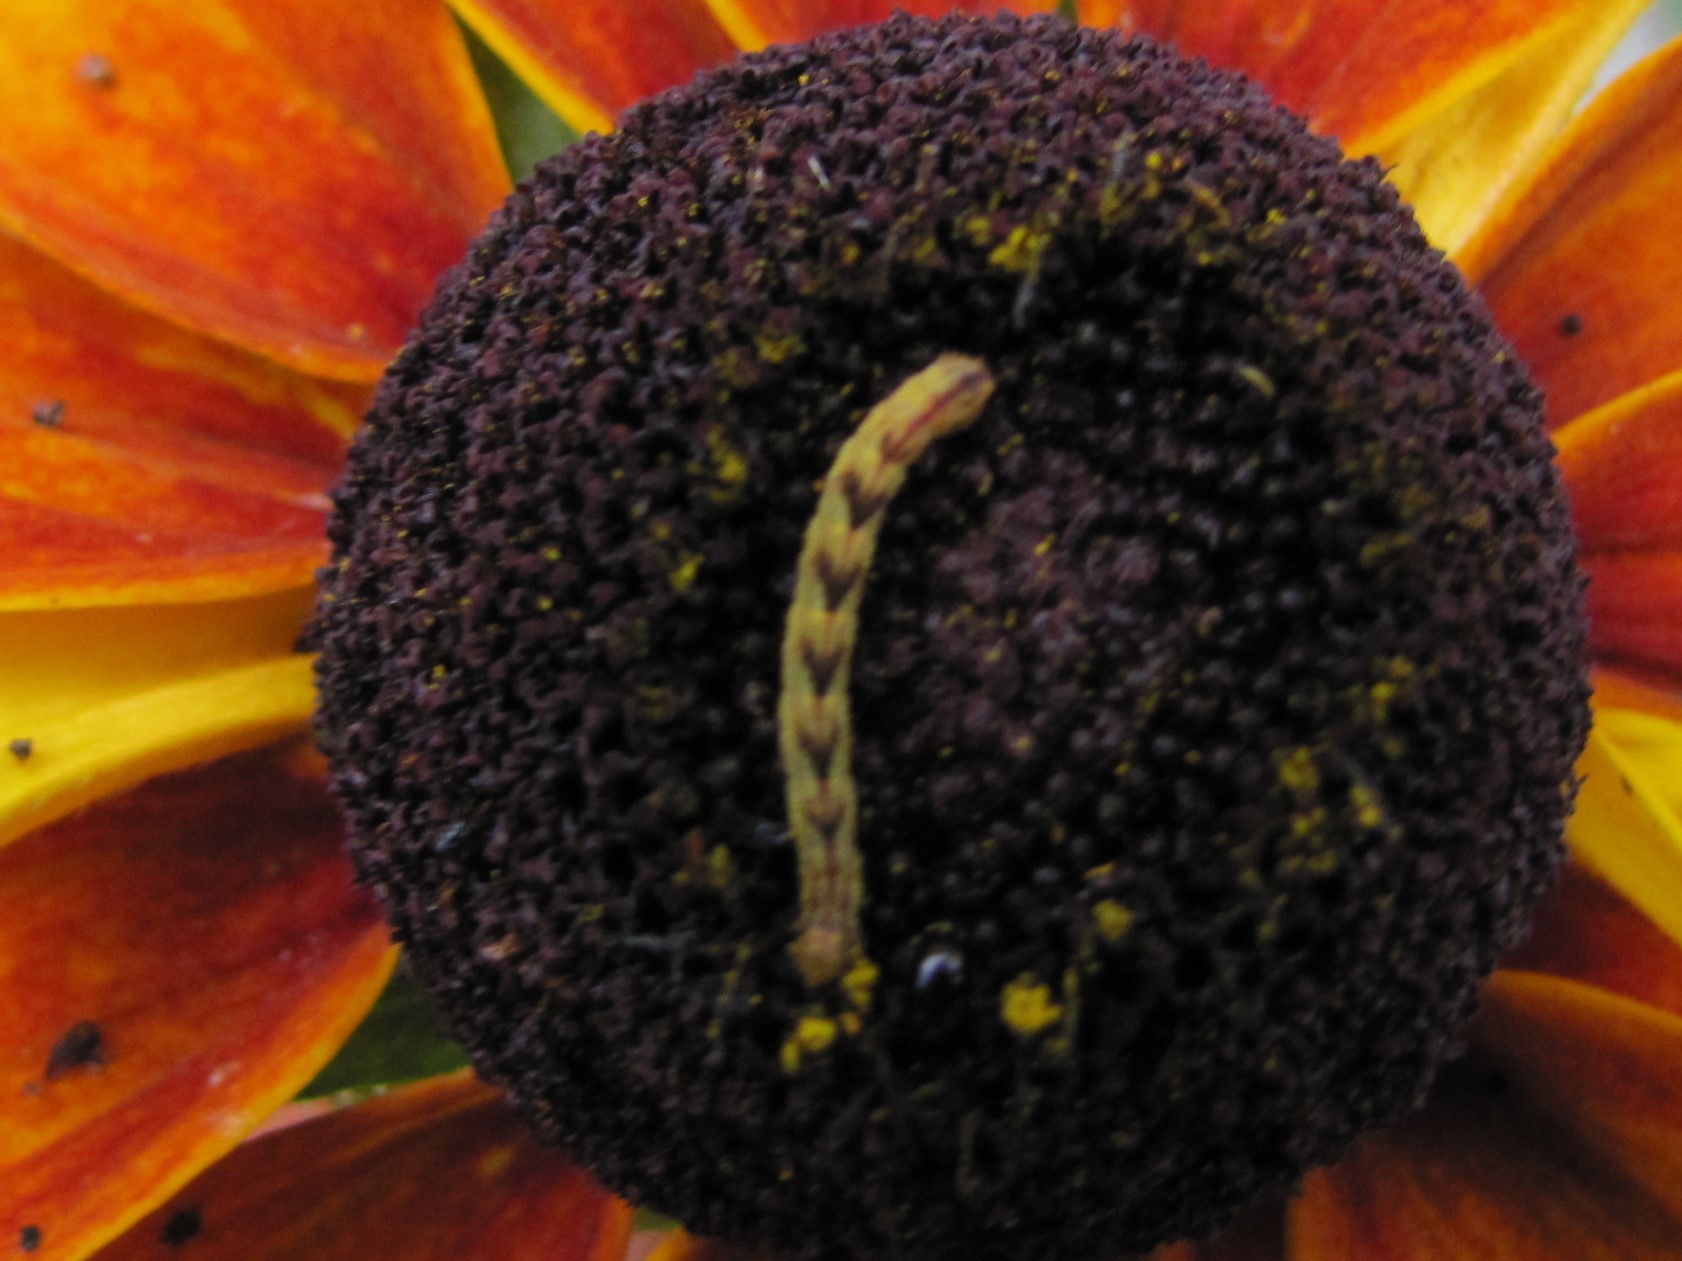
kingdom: Animalia
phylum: Arthropoda
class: Insecta
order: Lepidoptera
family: Geometridae
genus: Eupithecia
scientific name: Eupithecia miserulata
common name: Common eupithecia
